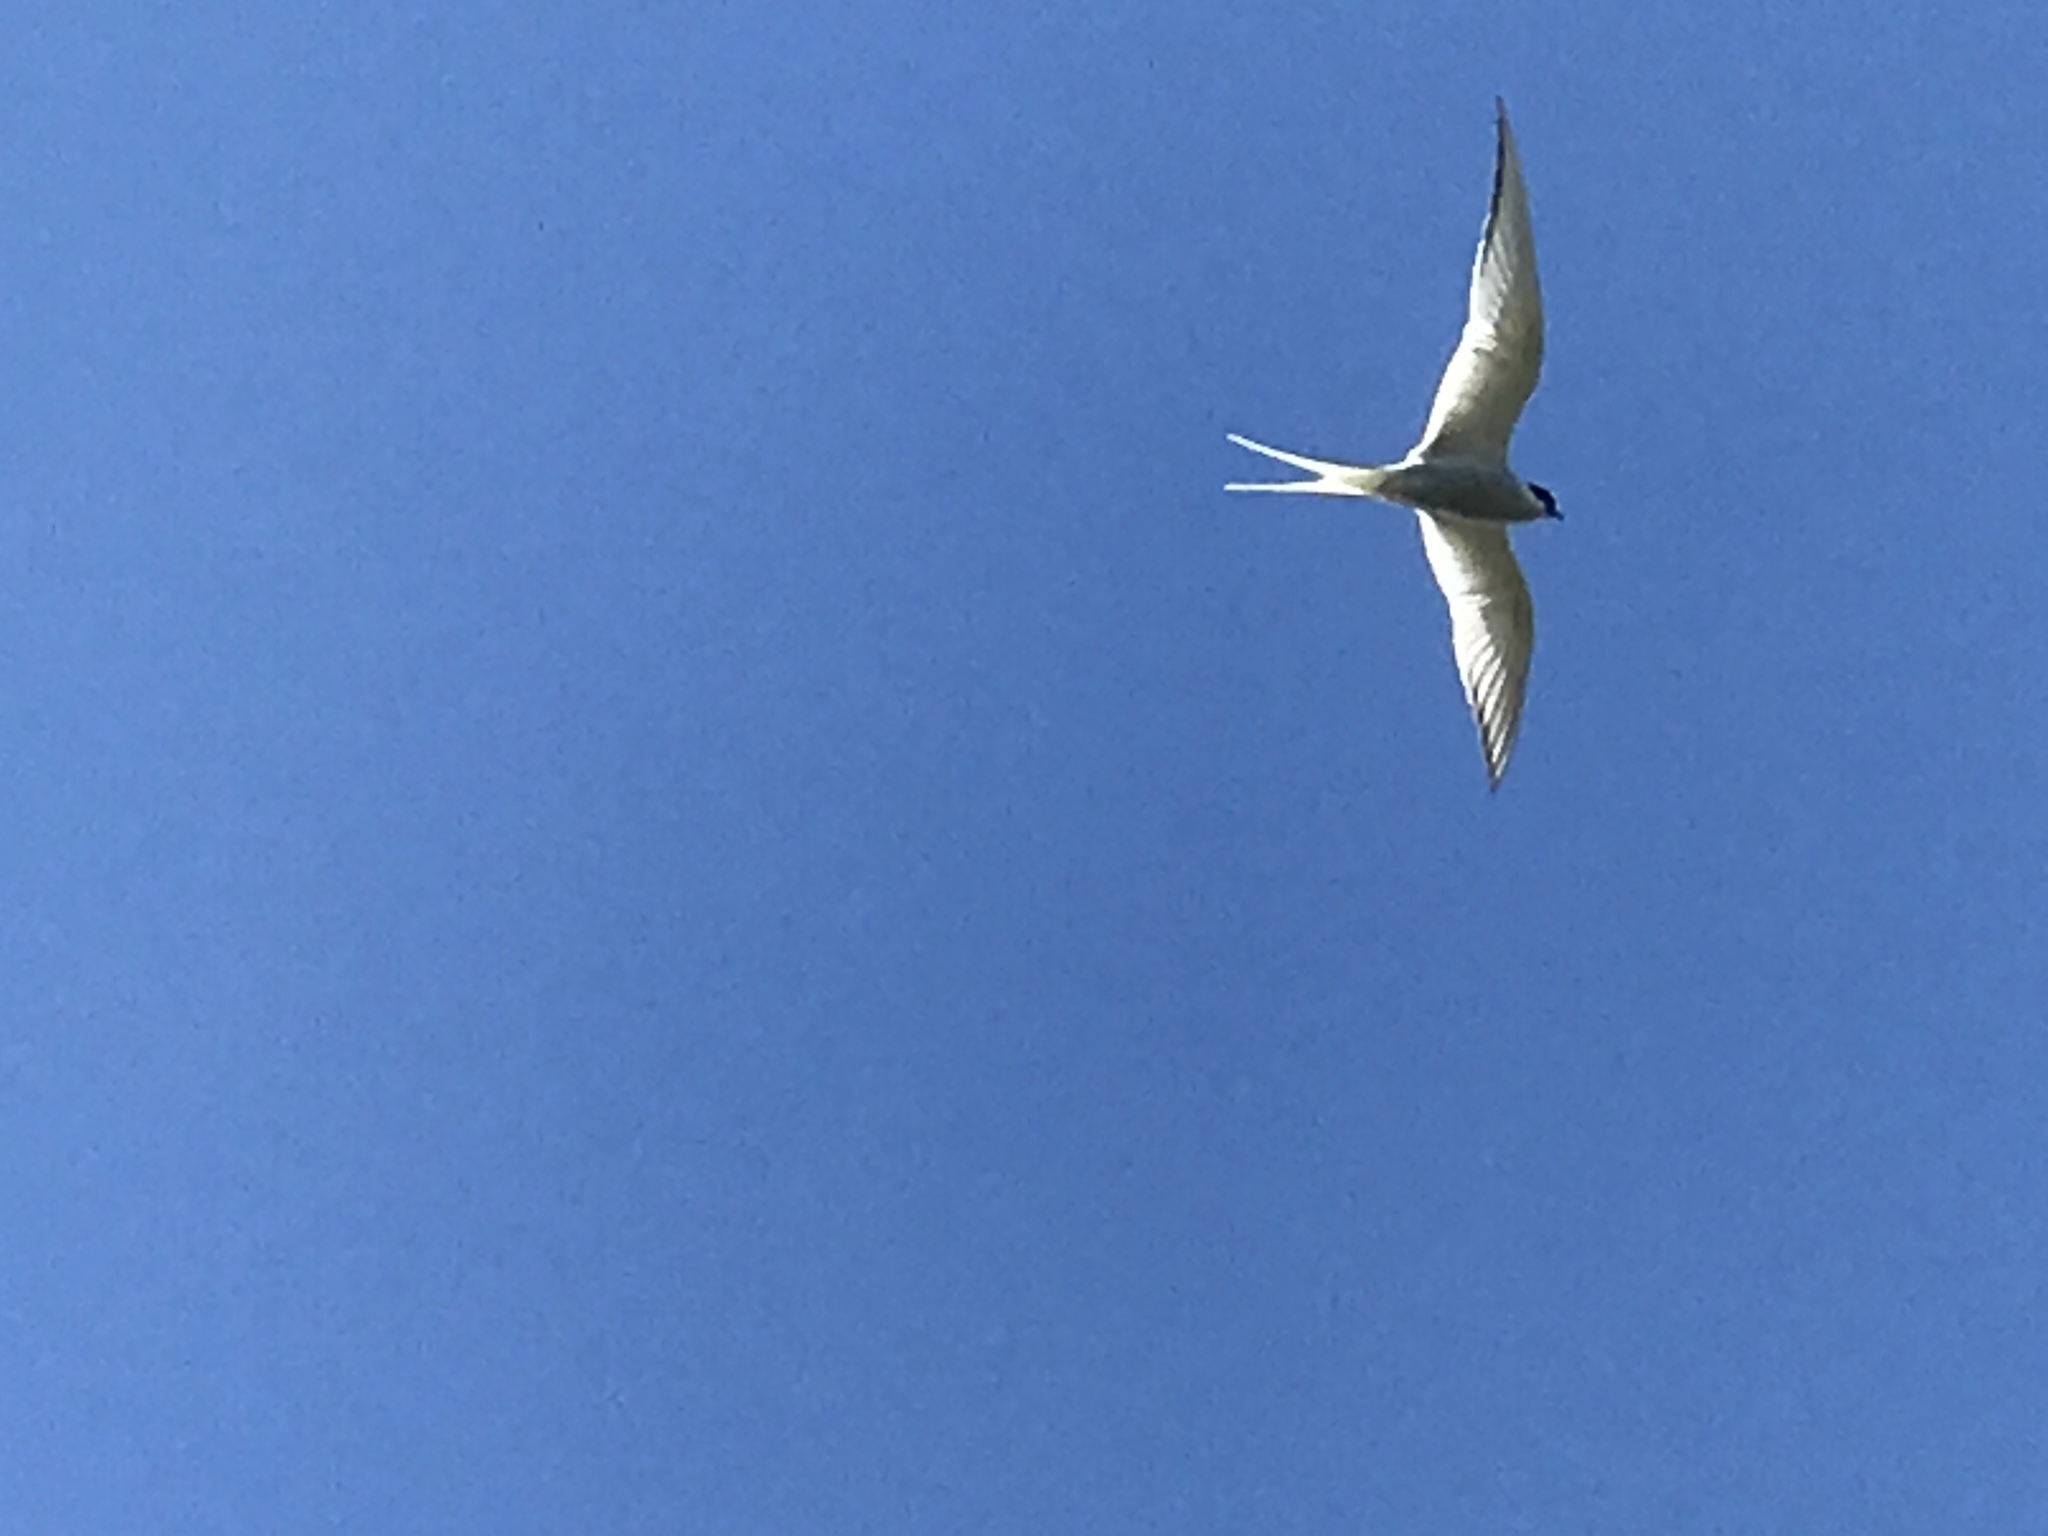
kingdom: Animalia
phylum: Chordata
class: Aves
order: Charadriiformes
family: Laridae
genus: Sterna
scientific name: Sterna paradisaea
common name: Arctic tern
